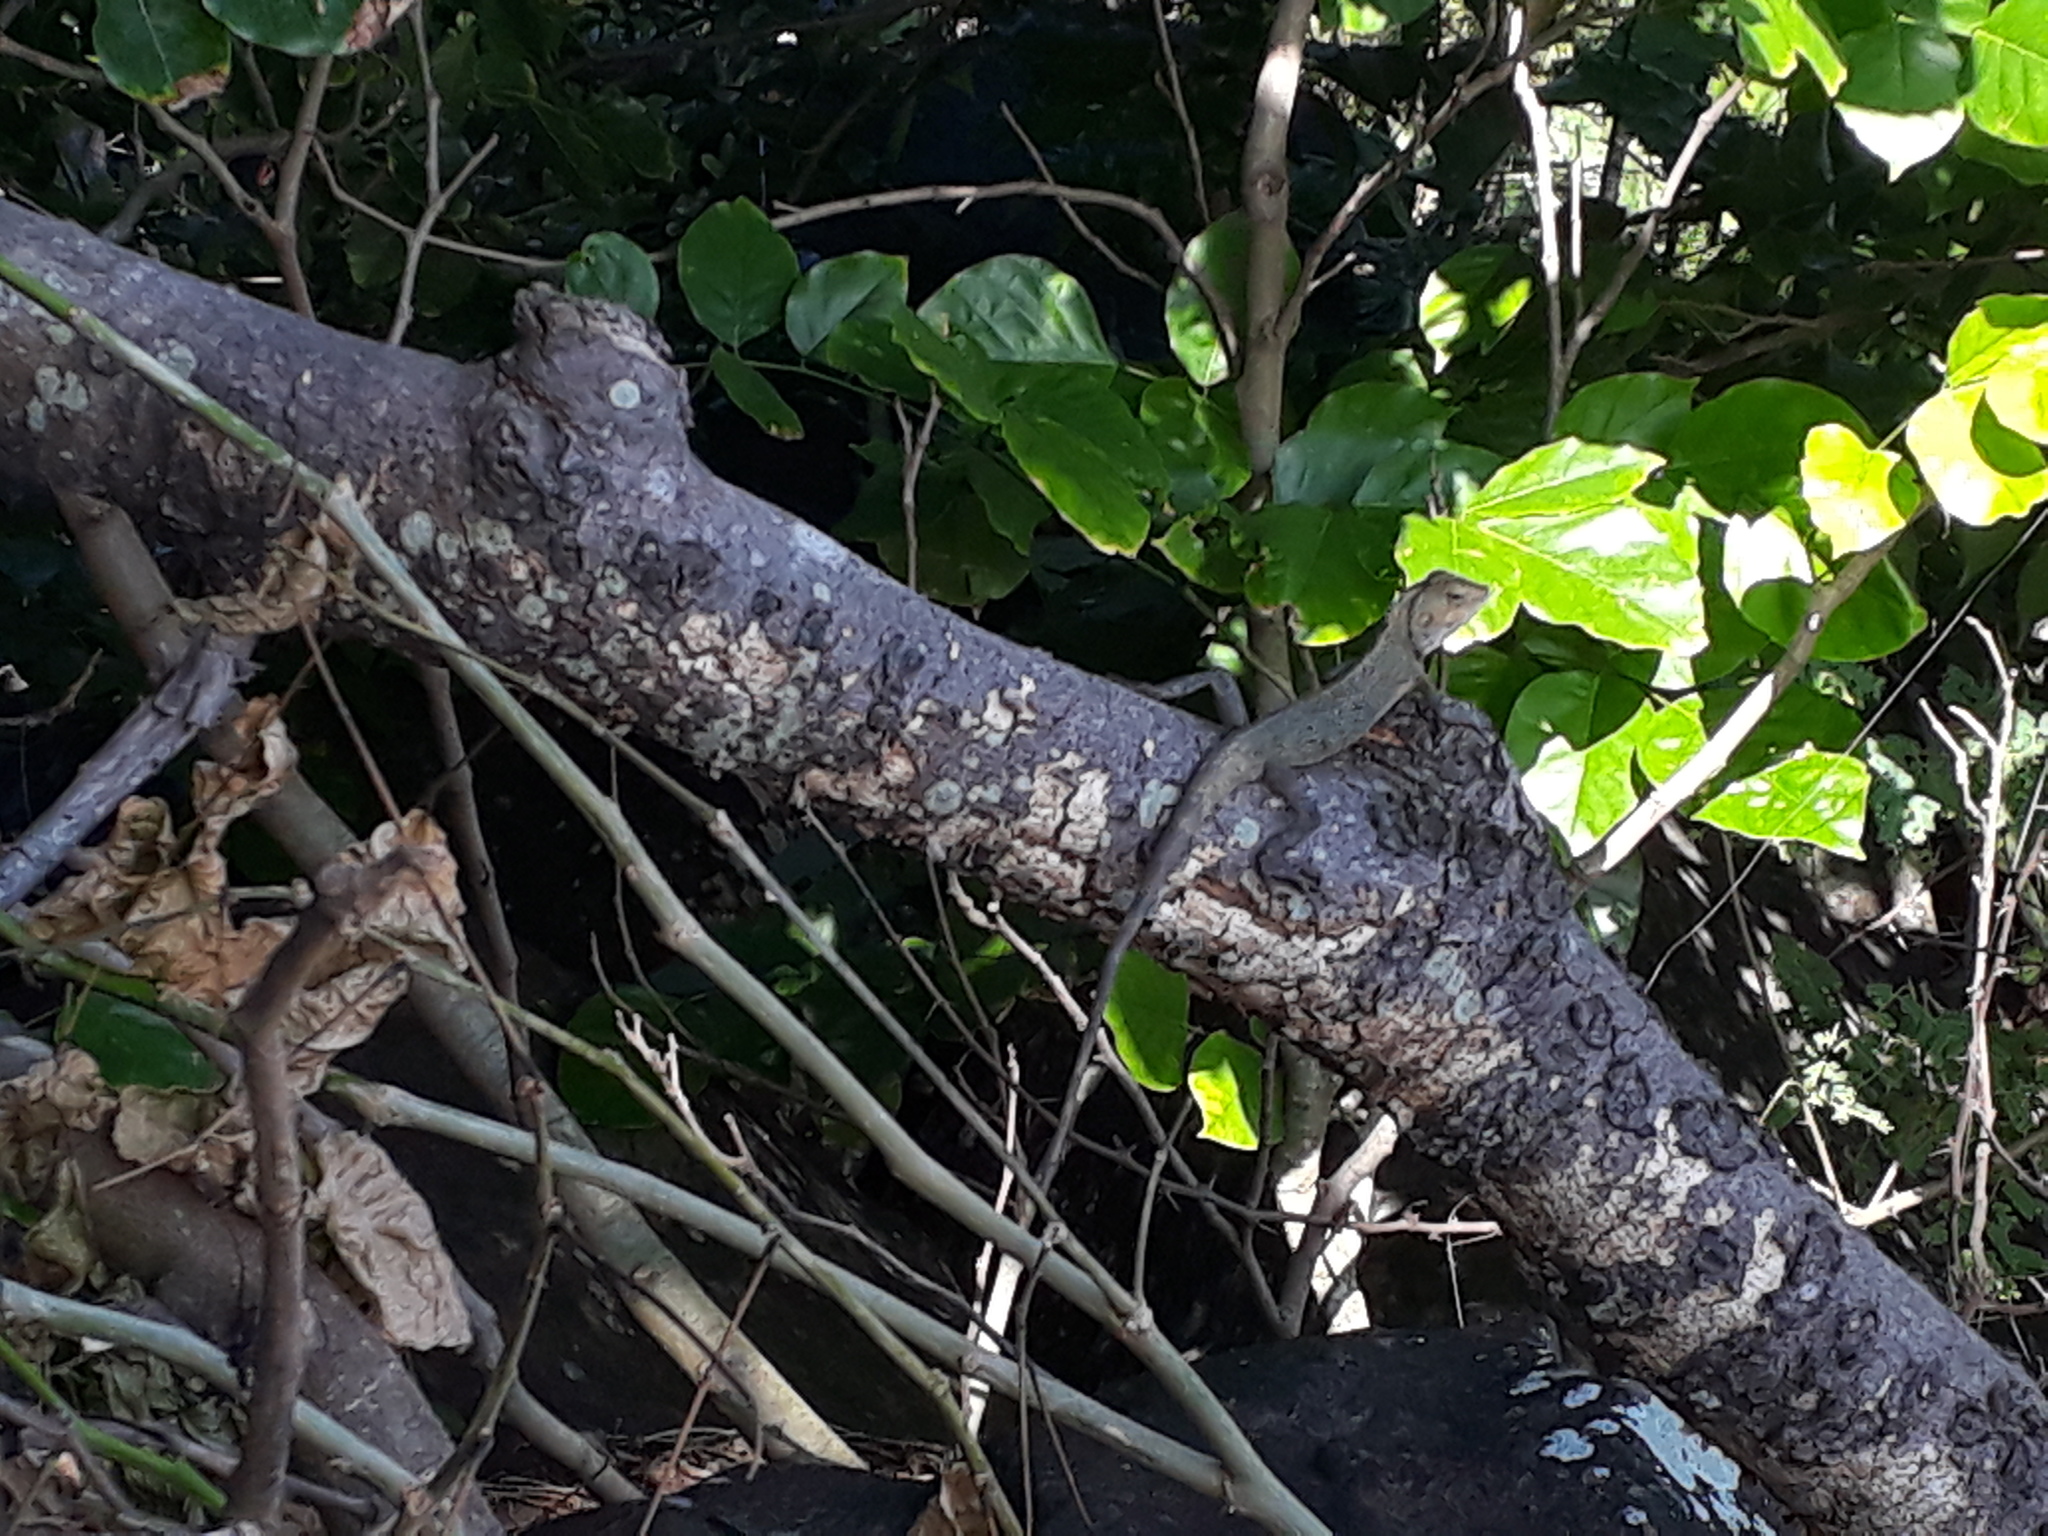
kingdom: Animalia
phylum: Chordata
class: Squamata
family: Agamidae
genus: Calotes
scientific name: Calotes versicolor
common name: Oriental garden lizard
